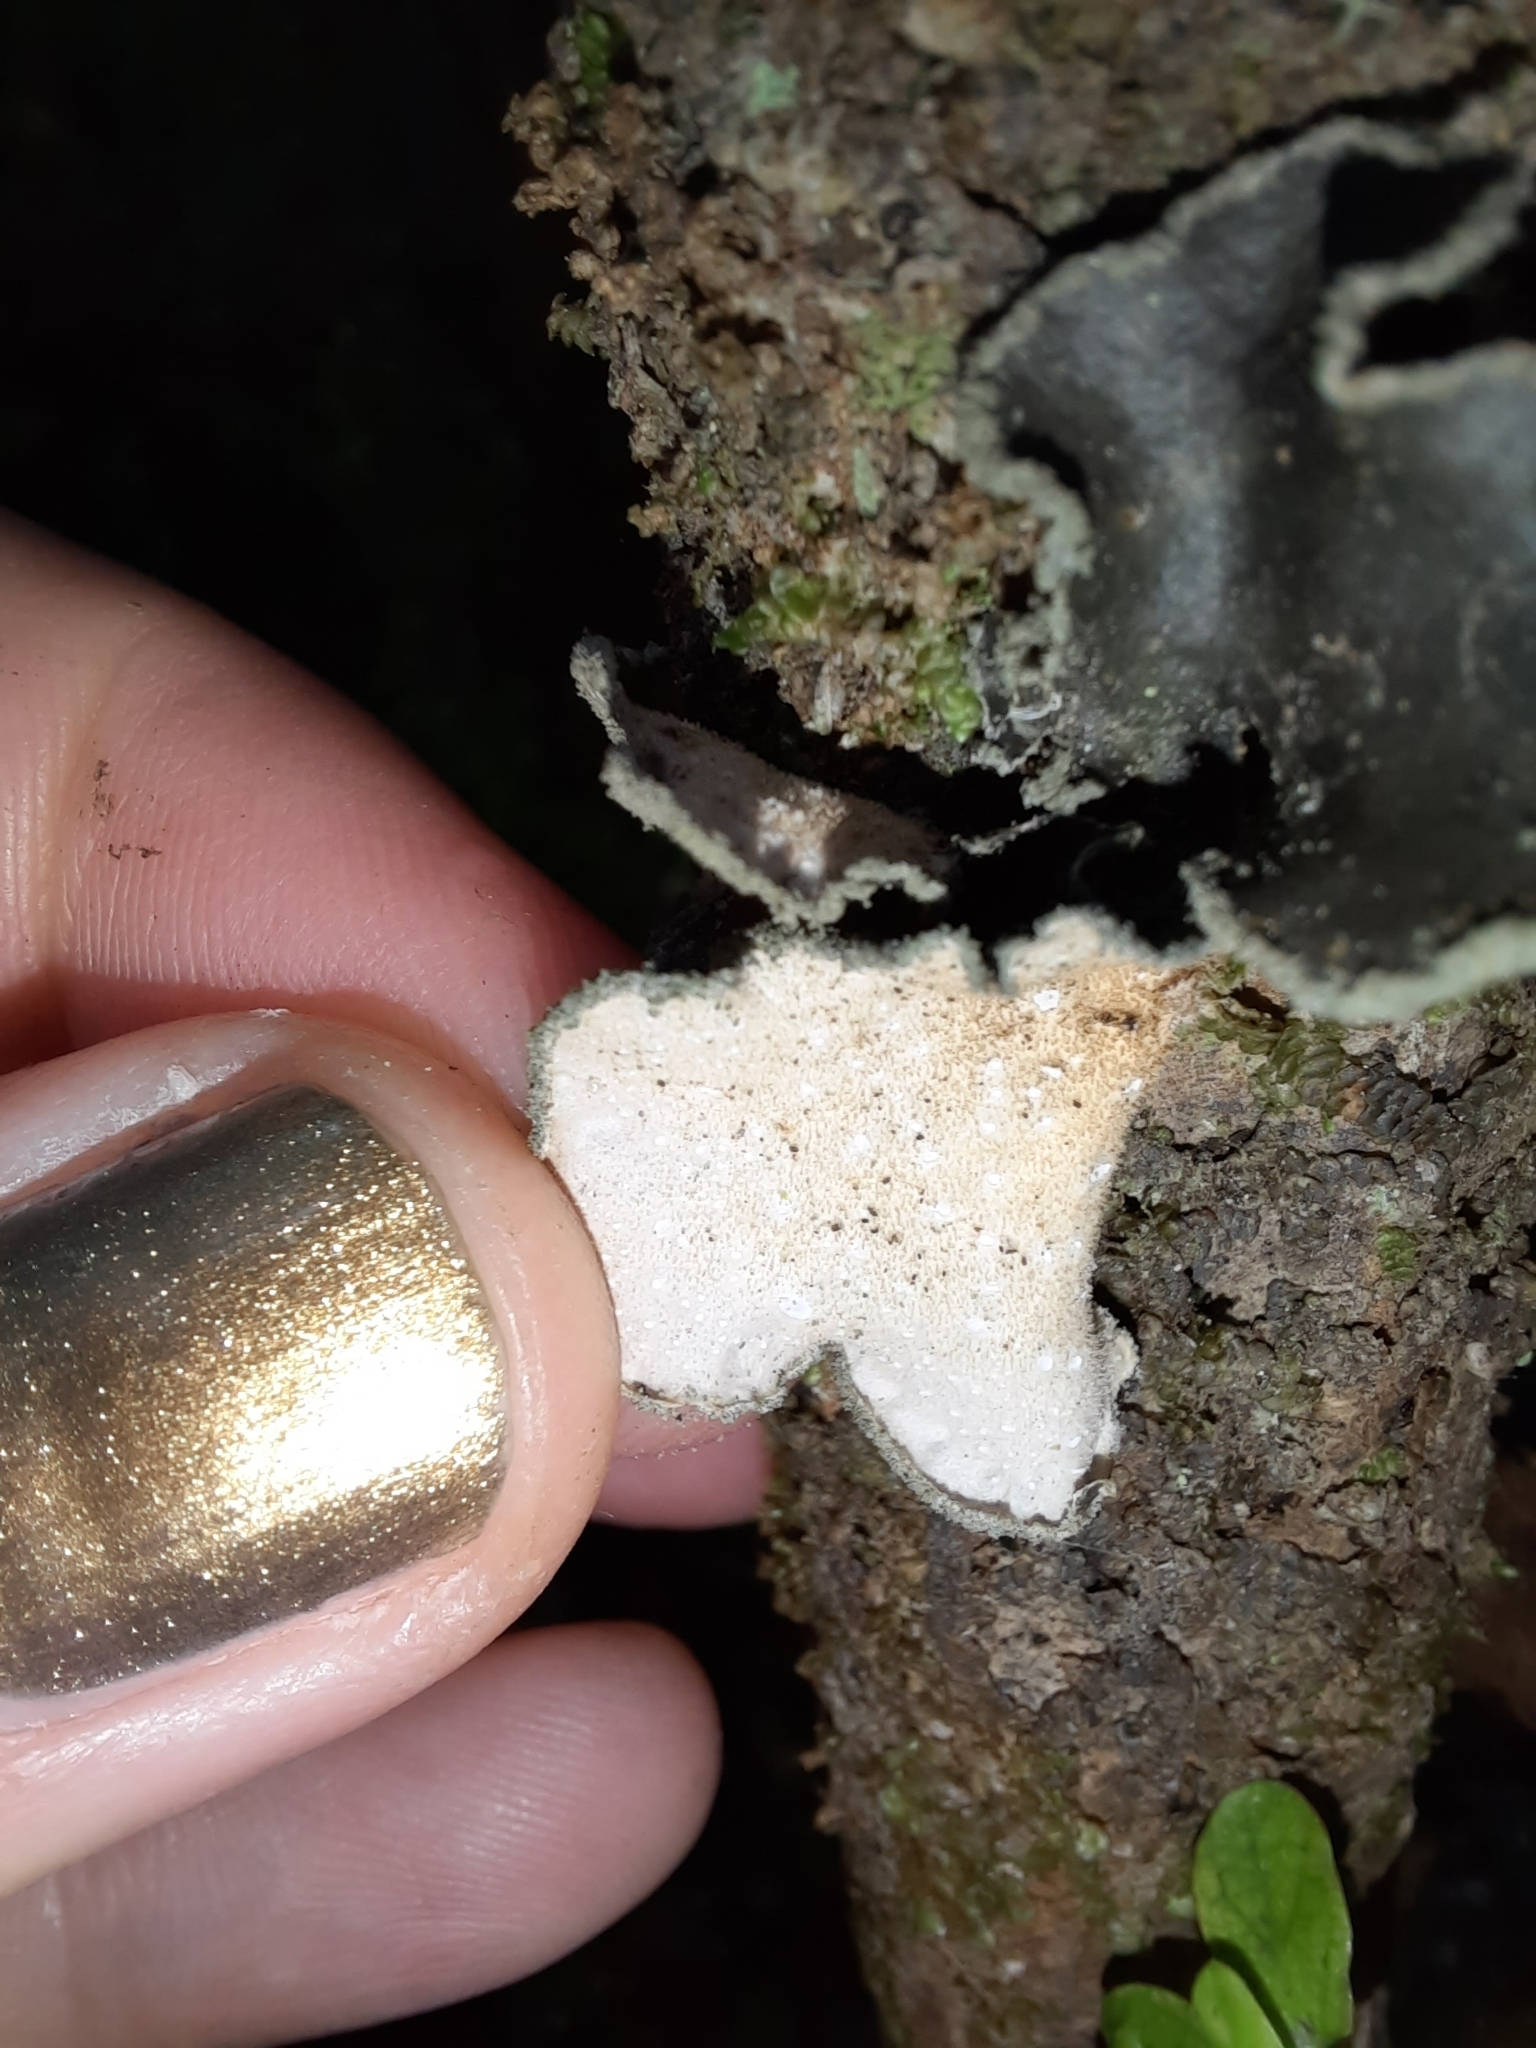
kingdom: Fungi
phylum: Ascomycota
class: Lecanoromycetes
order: Peltigerales
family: Lobariaceae
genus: Sticta
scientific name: Sticta limbata
